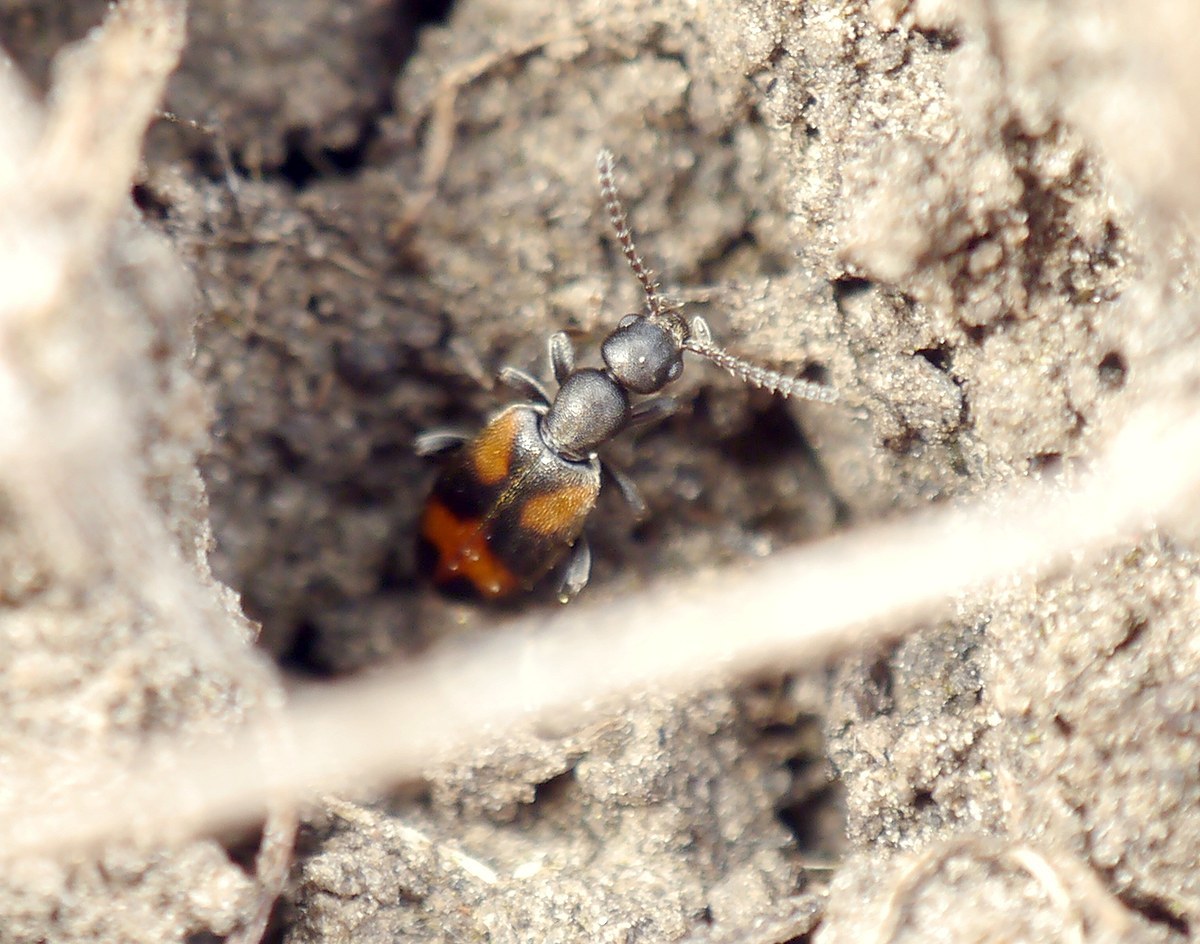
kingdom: Animalia
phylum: Arthropoda
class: Insecta
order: Coleoptera
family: Anthicidae
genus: Anthicus
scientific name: Anthicus antherinus
